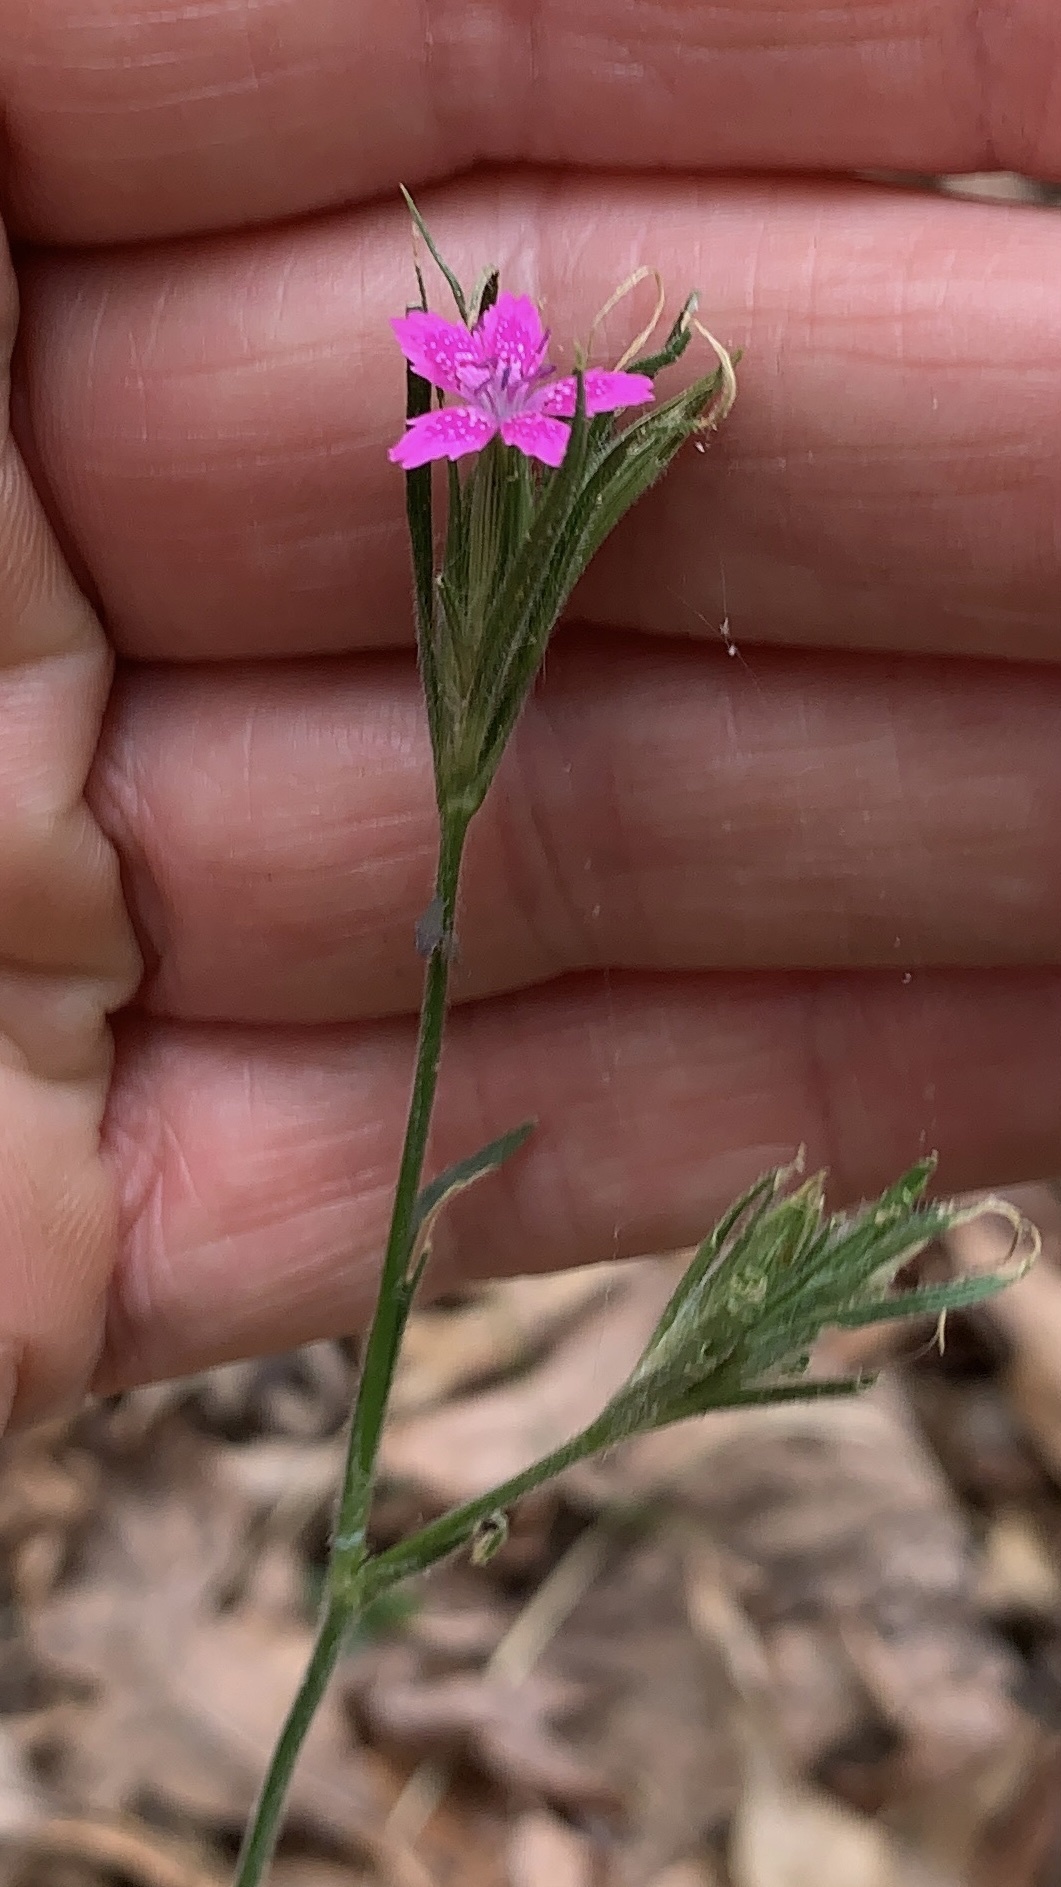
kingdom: Plantae
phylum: Tracheophyta
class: Magnoliopsida
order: Caryophyllales
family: Caryophyllaceae
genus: Dianthus
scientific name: Dianthus armeria
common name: Deptford pink
